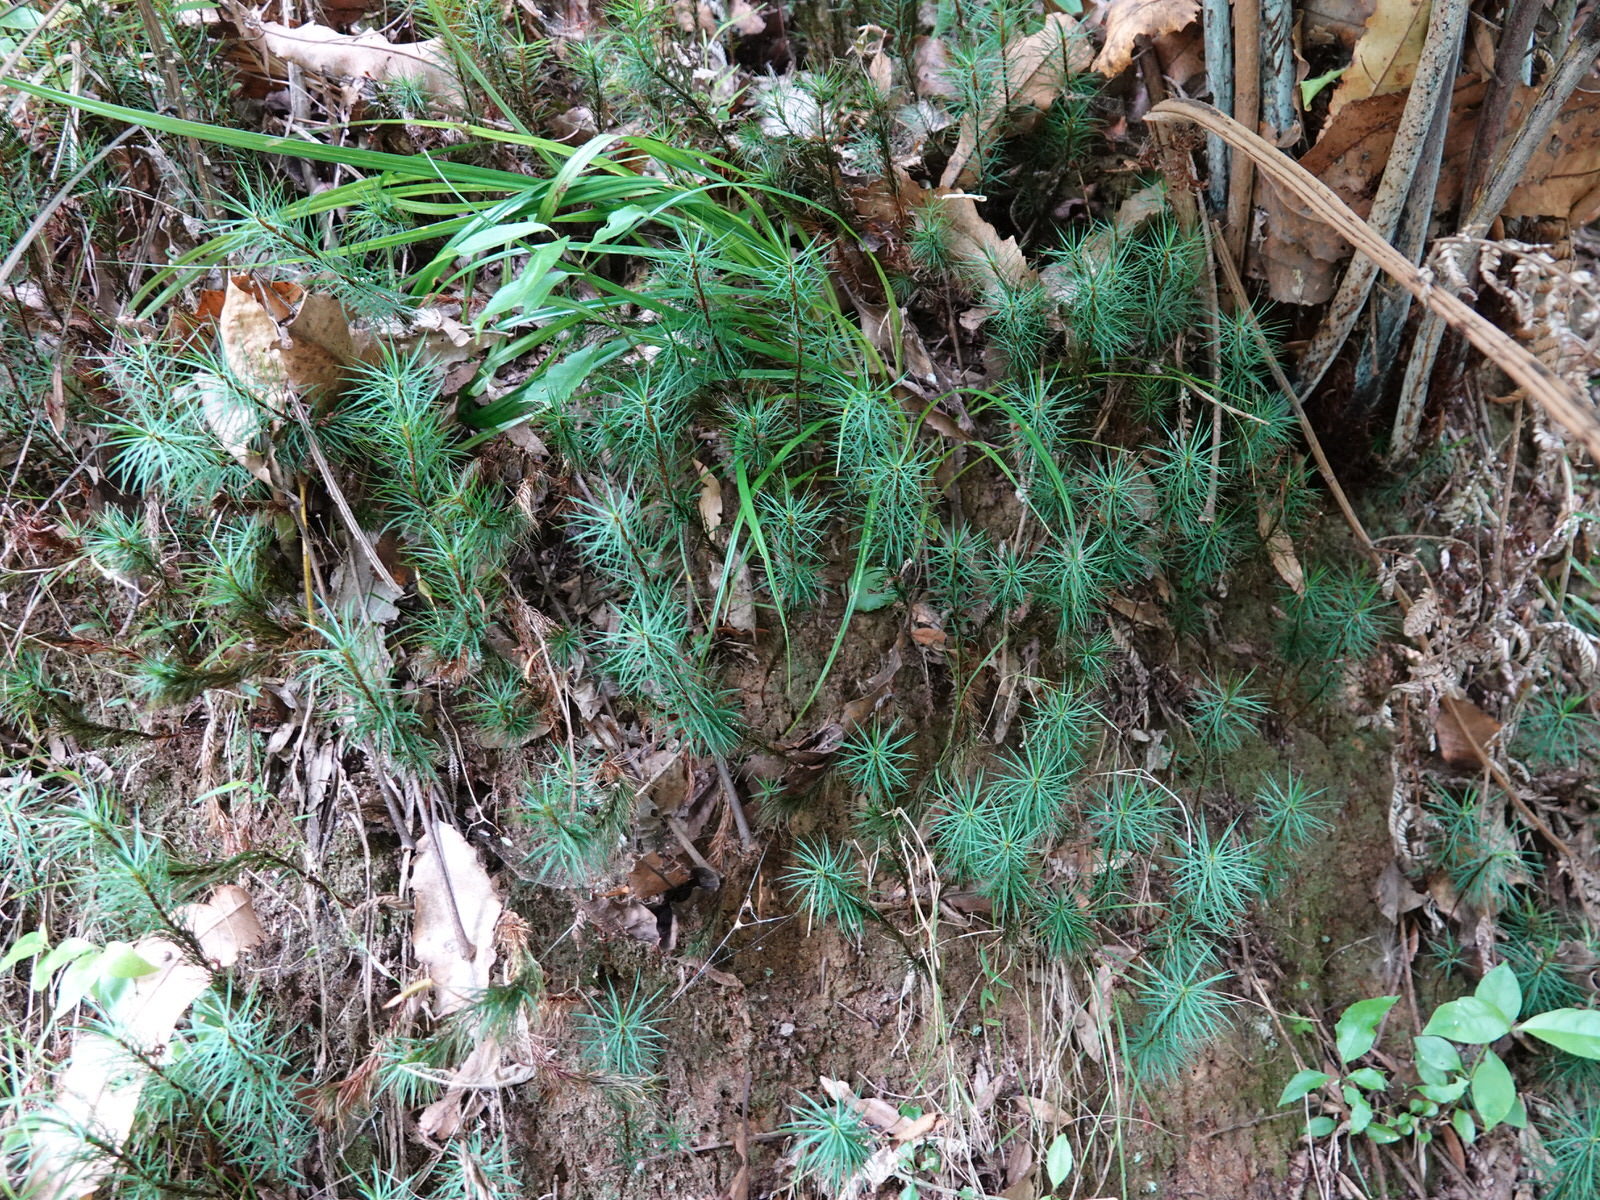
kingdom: Plantae
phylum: Bryophyta
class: Polytrichopsida
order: Polytrichales
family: Polytrichaceae
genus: Dawsonia
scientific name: Dawsonia superba
